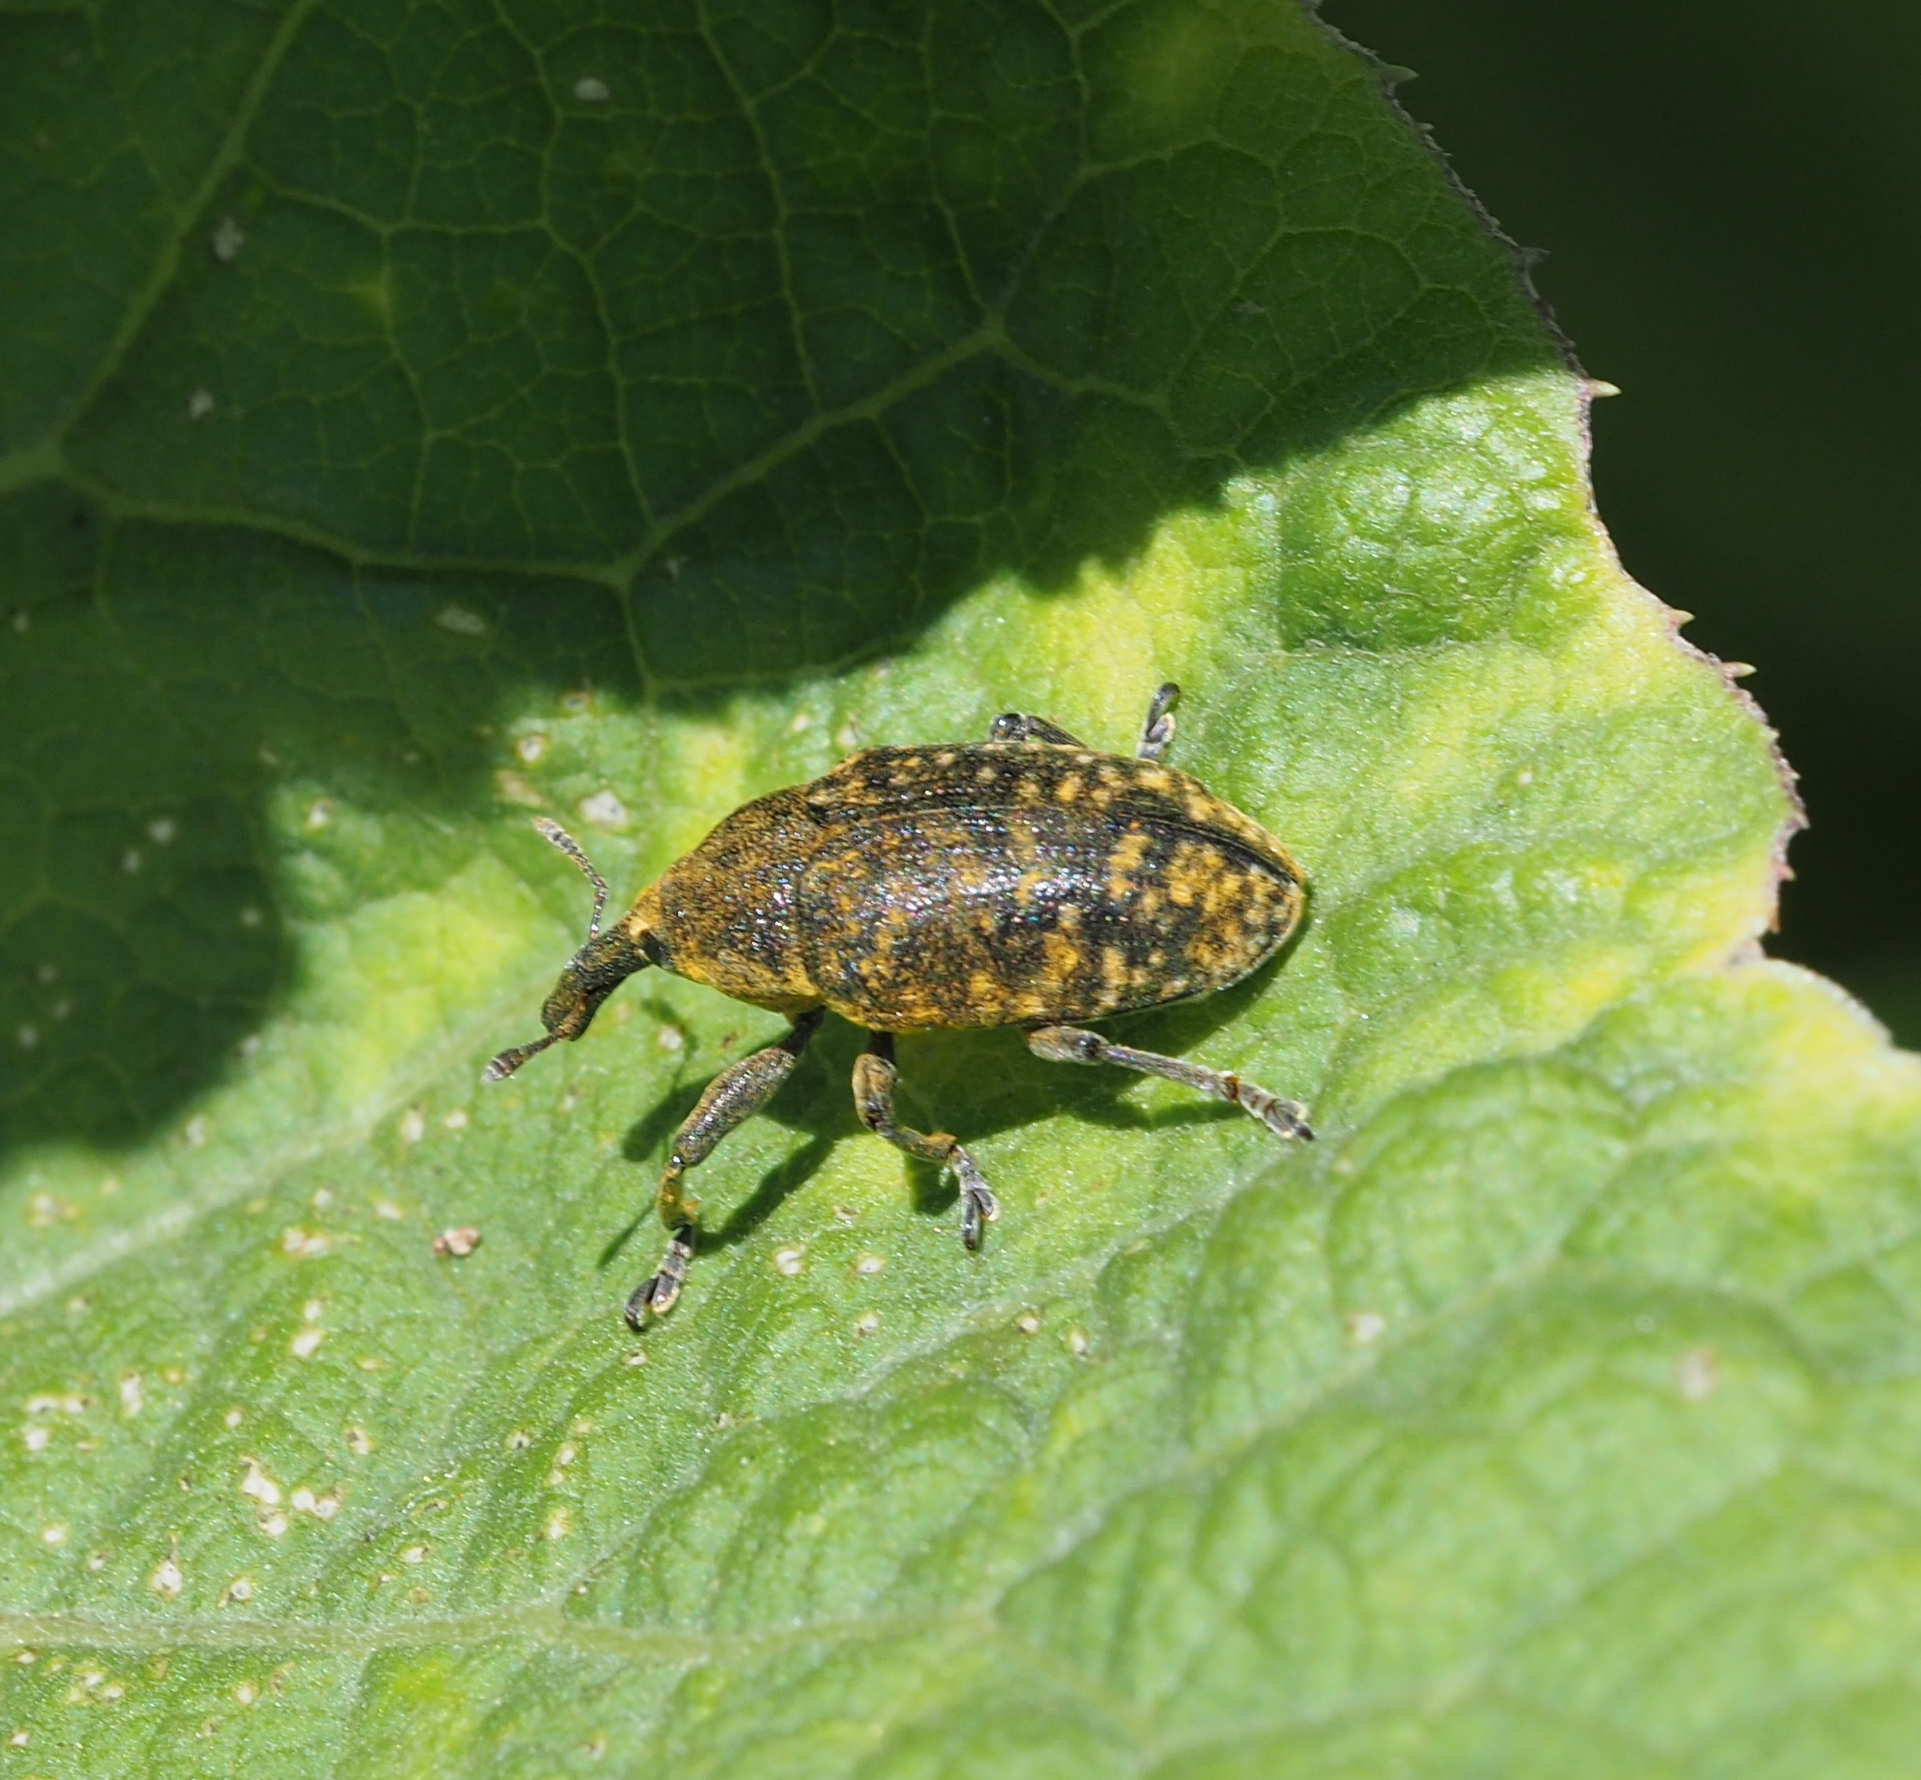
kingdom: Animalia
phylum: Arthropoda
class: Insecta
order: Coleoptera
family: Curculionidae
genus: Larinus
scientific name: Larinus sturnus
